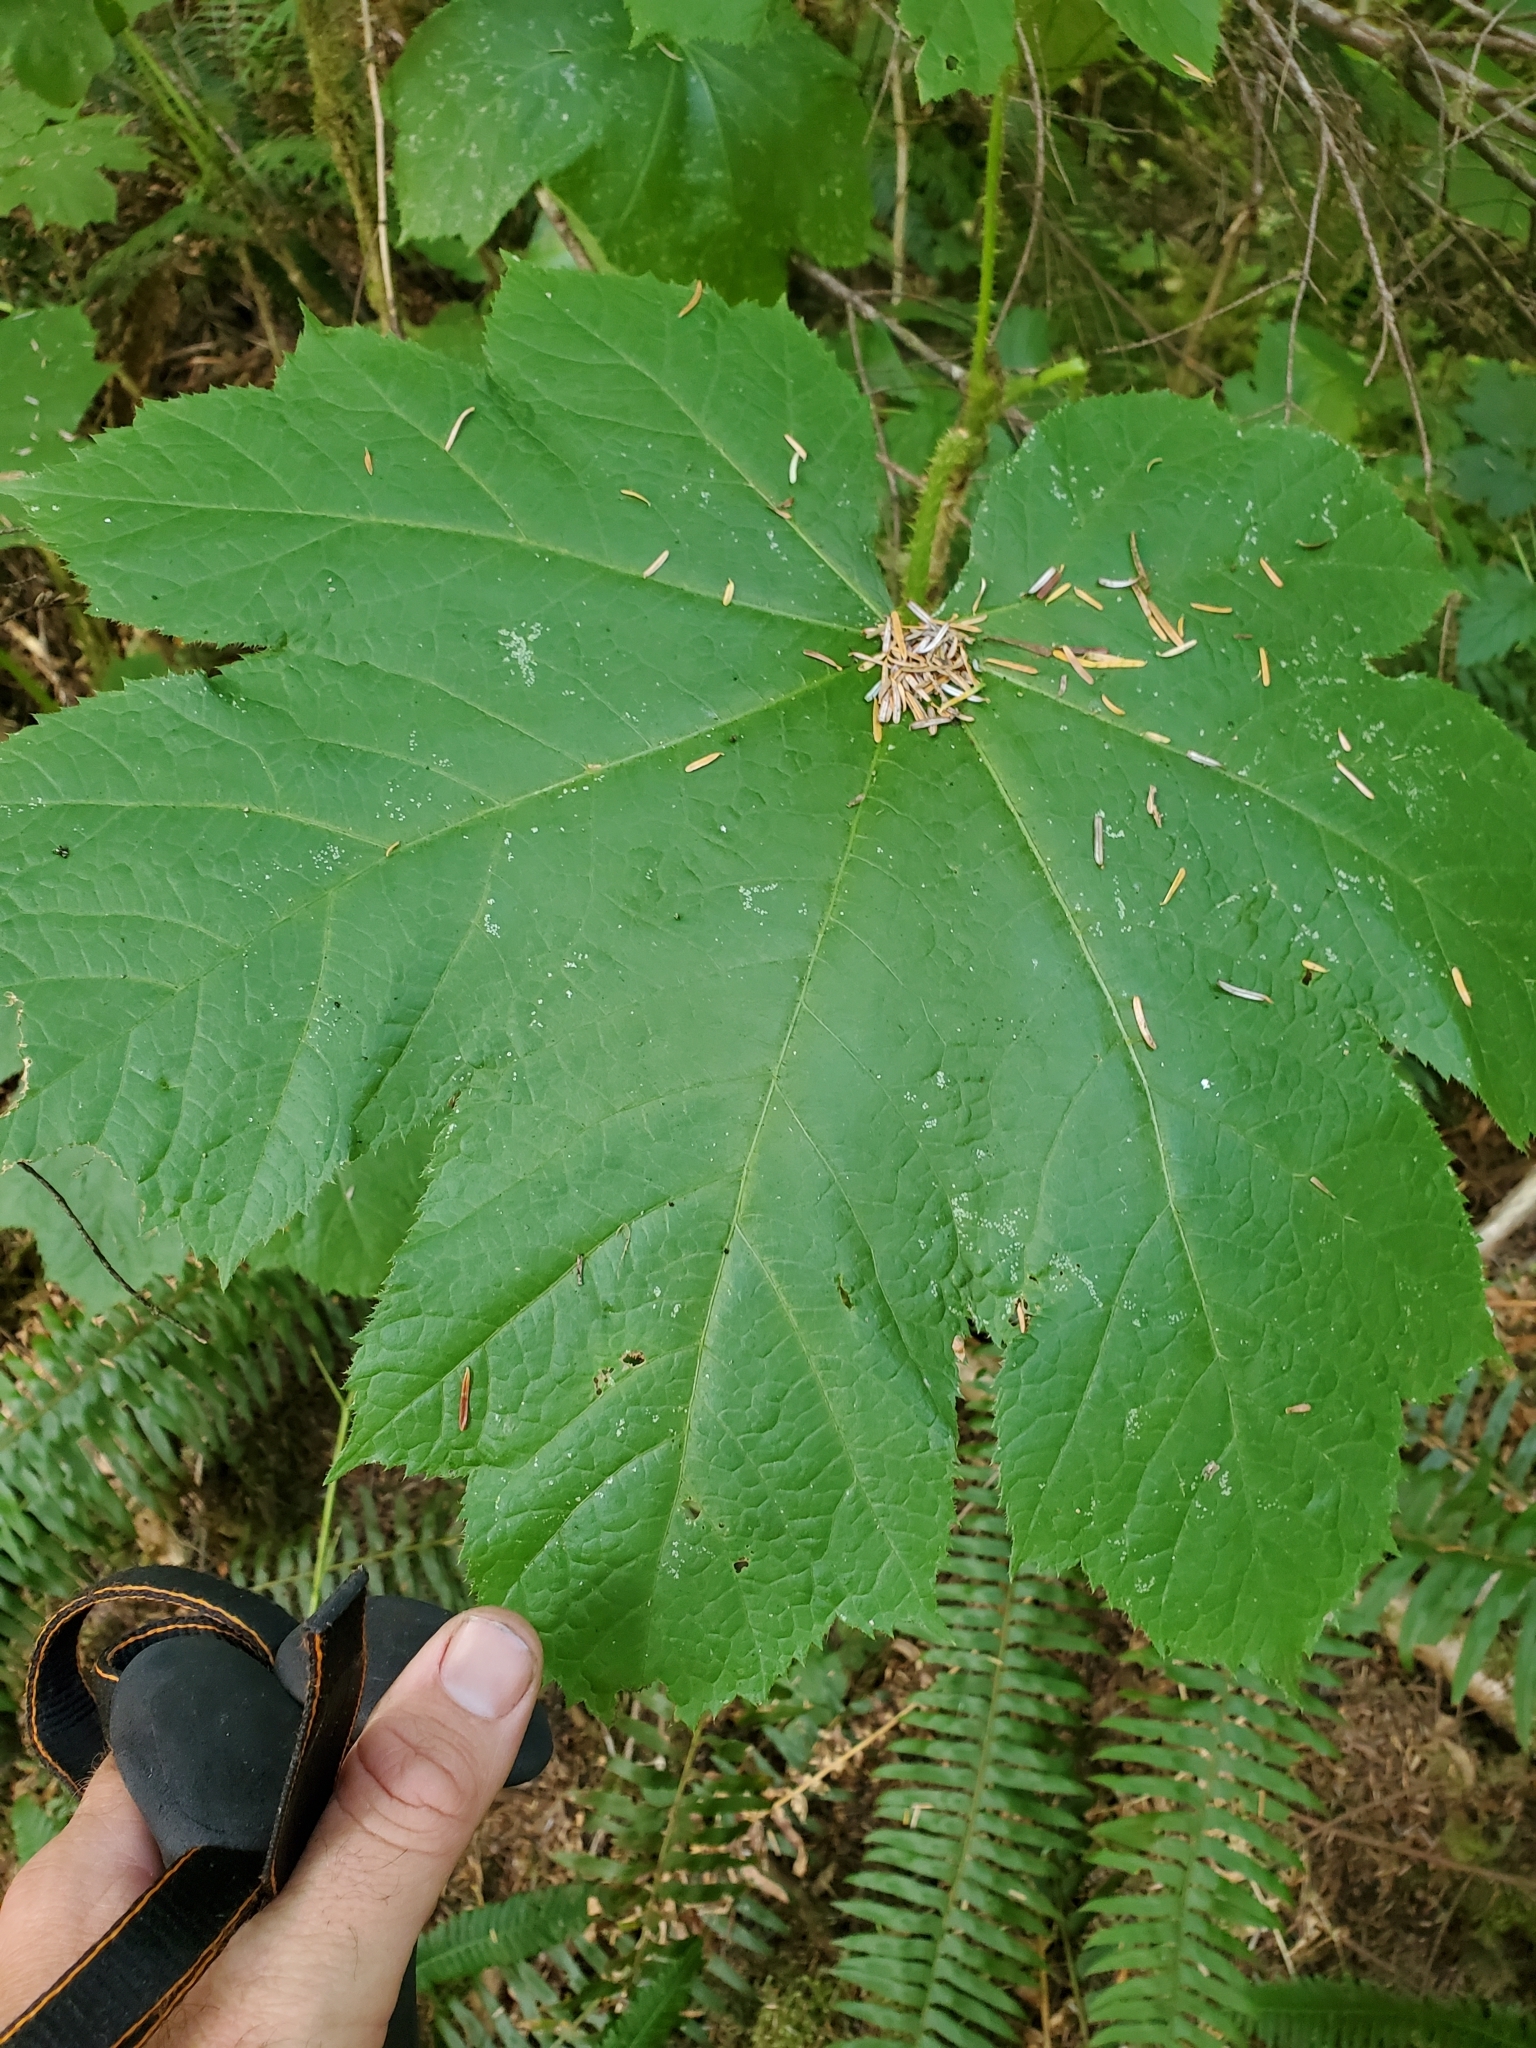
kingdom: Plantae
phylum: Tracheophyta
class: Magnoliopsida
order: Apiales
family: Araliaceae
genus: Oplopanax
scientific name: Oplopanax horridus
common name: Devil's walking-stick
